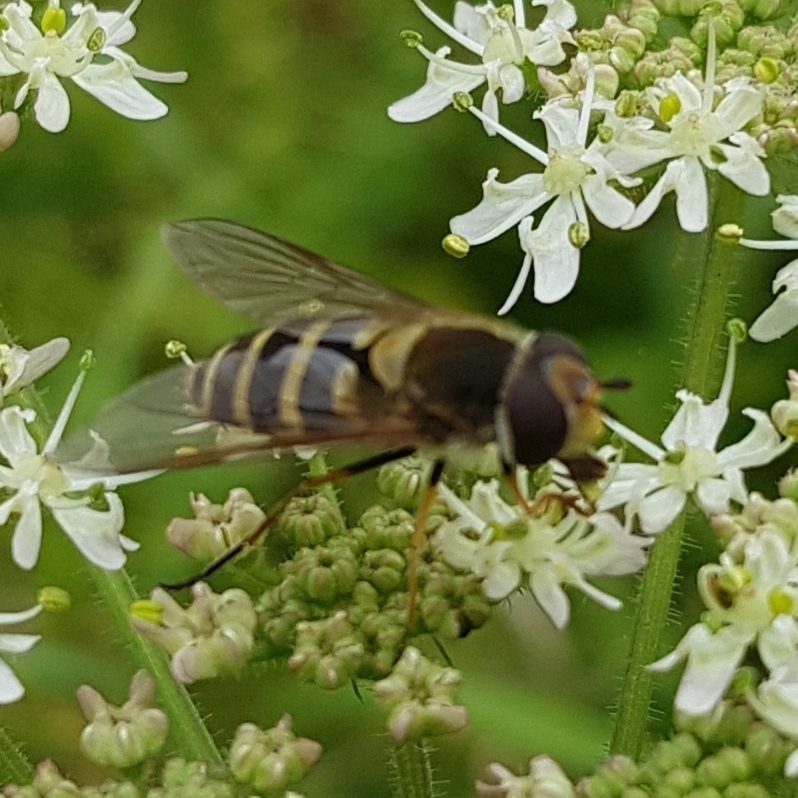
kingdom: Animalia
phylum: Arthropoda
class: Insecta
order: Diptera
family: Syrphidae
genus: Syrphus
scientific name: Syrphus
